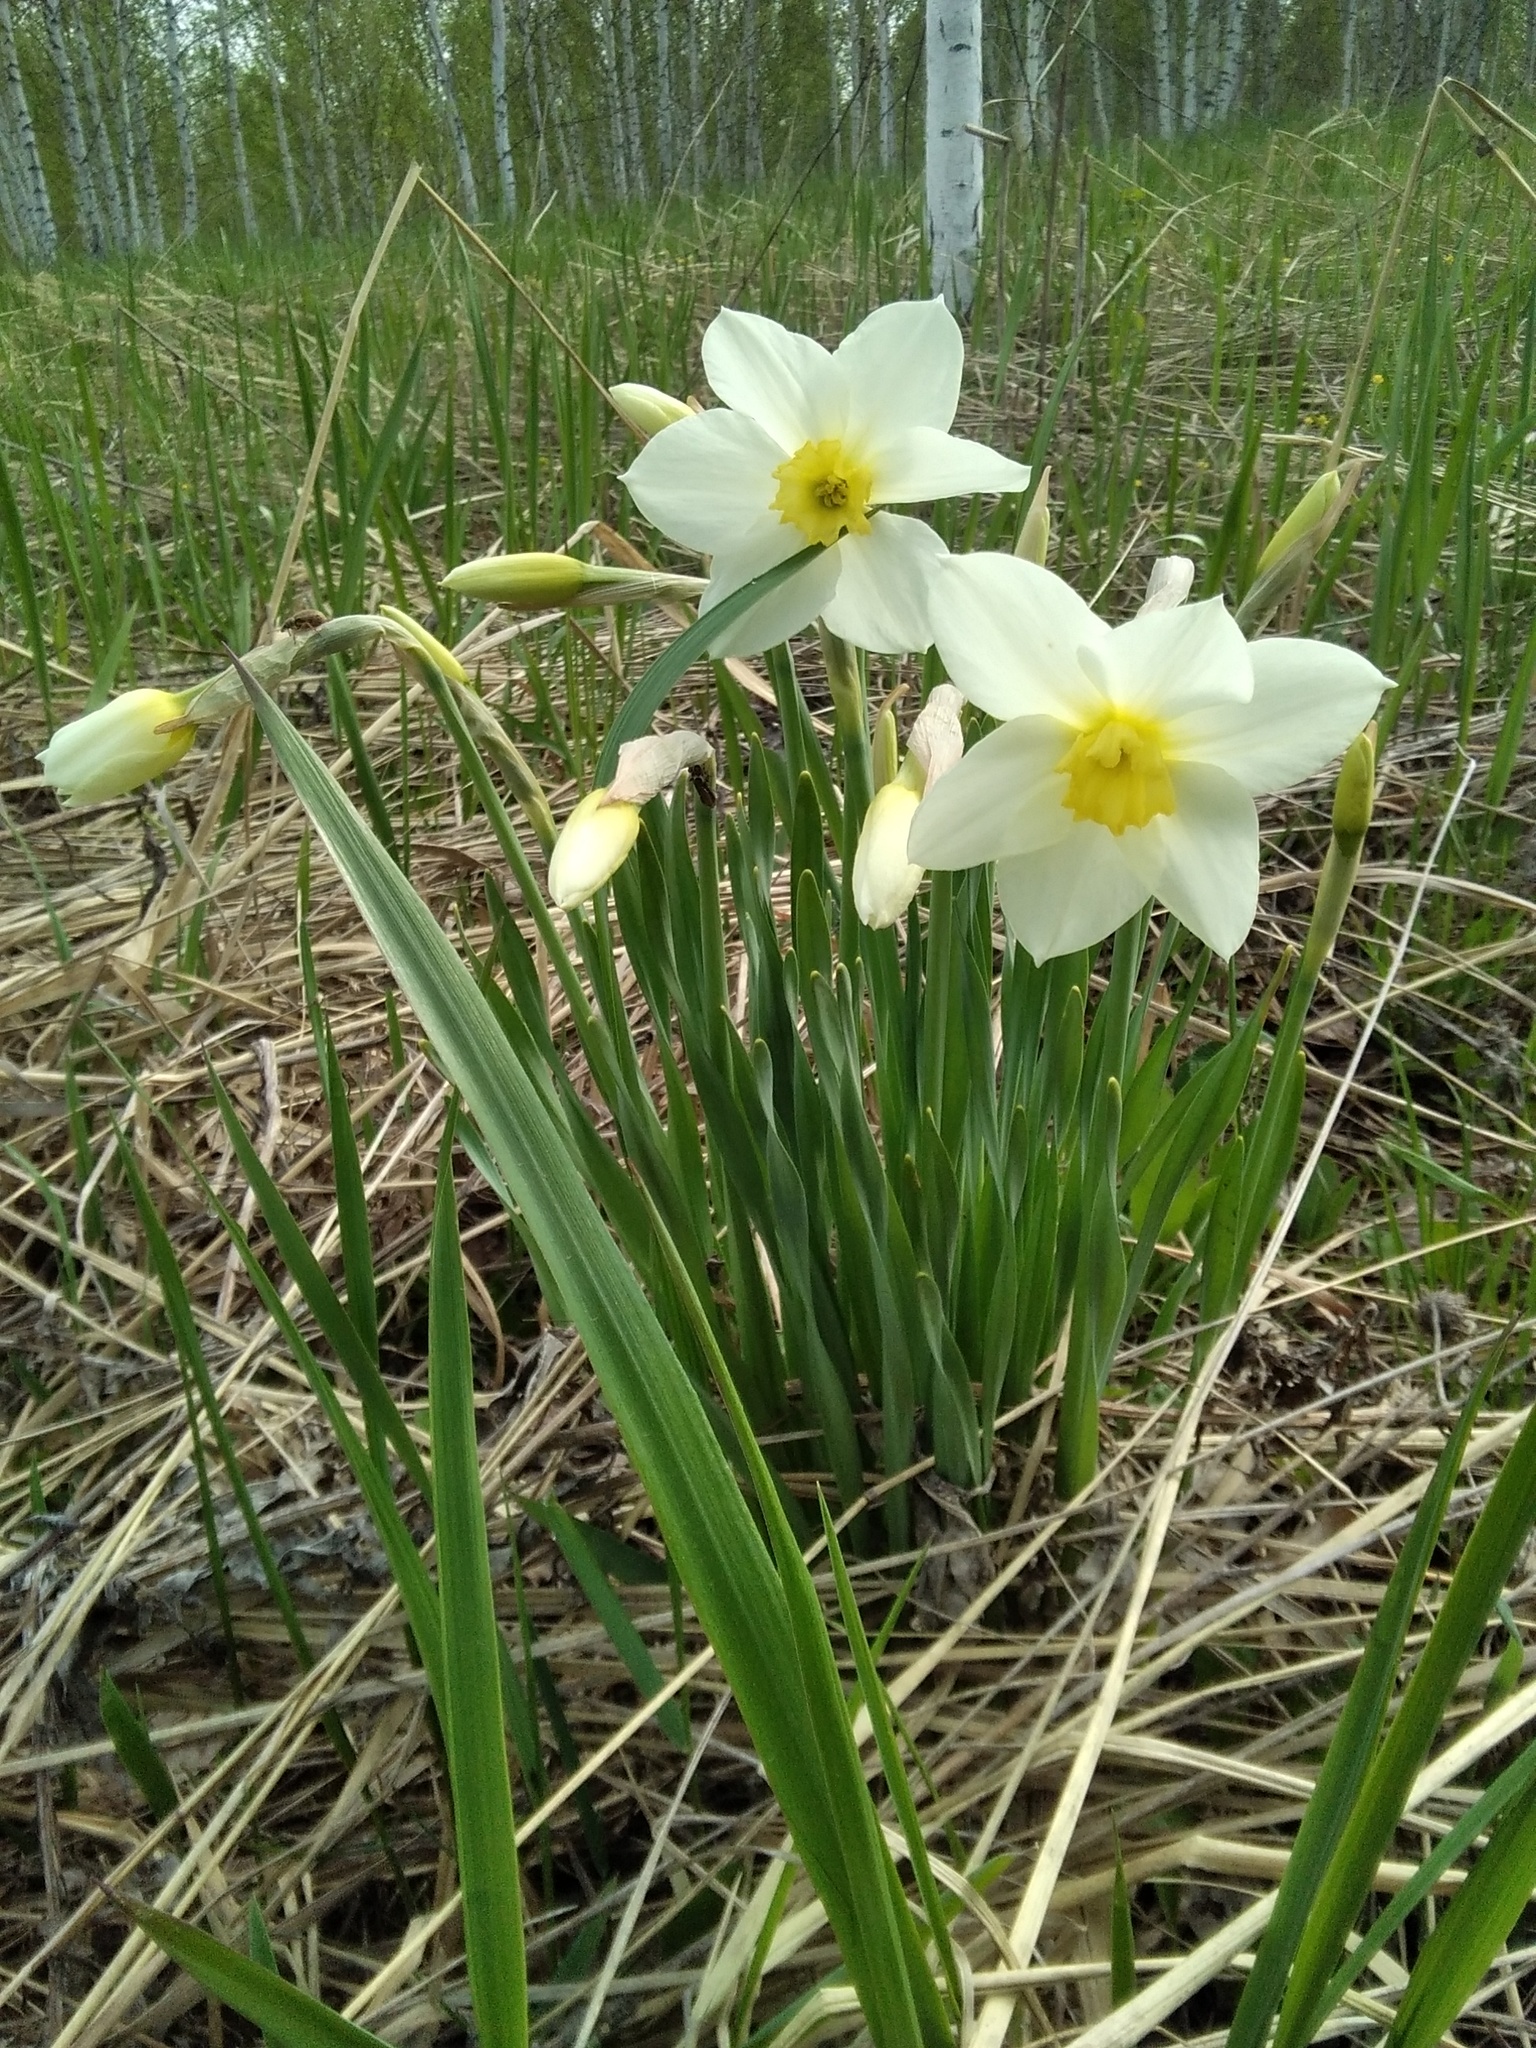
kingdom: Plantae
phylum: Tracheophyta
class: Liliopsida
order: Asparagales
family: Amaryllidaceae
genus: Narcissus
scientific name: Narcissus incomparabilis
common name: Nonesuch daffodil
